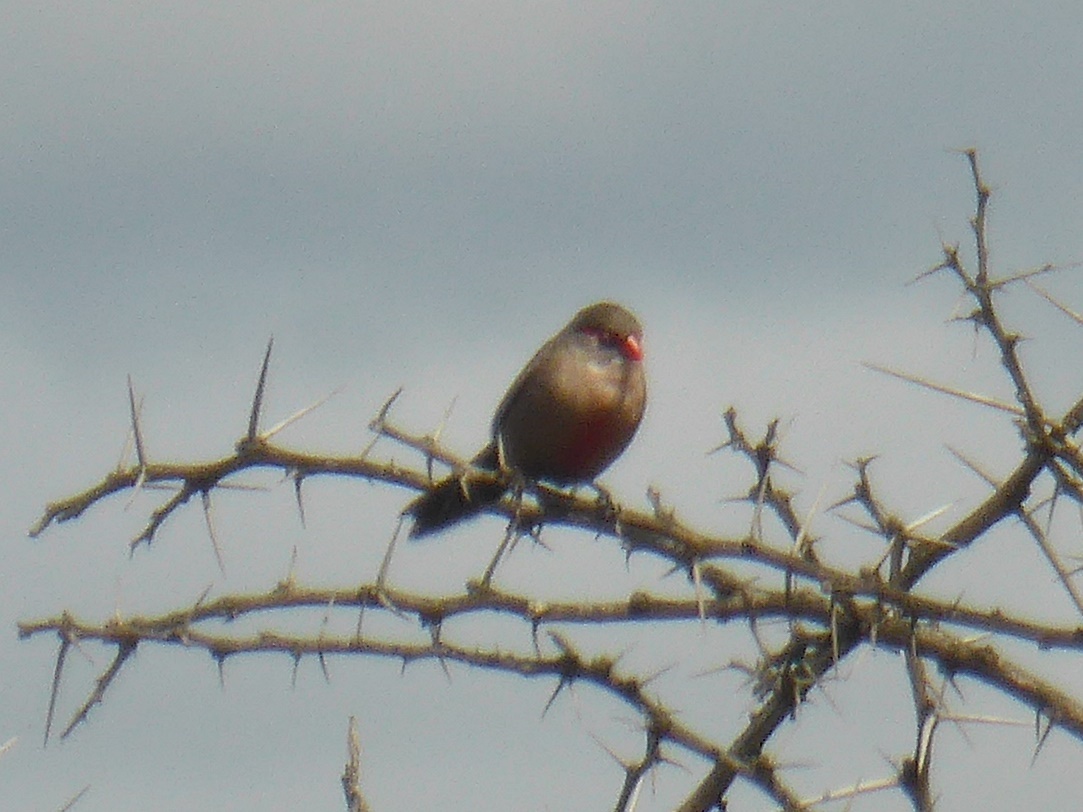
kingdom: Animalia
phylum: Chordata
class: Aves
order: Passeriformes
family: Estrildidae
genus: Estrilda
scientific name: Estrilda astrild
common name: Common waxbill
